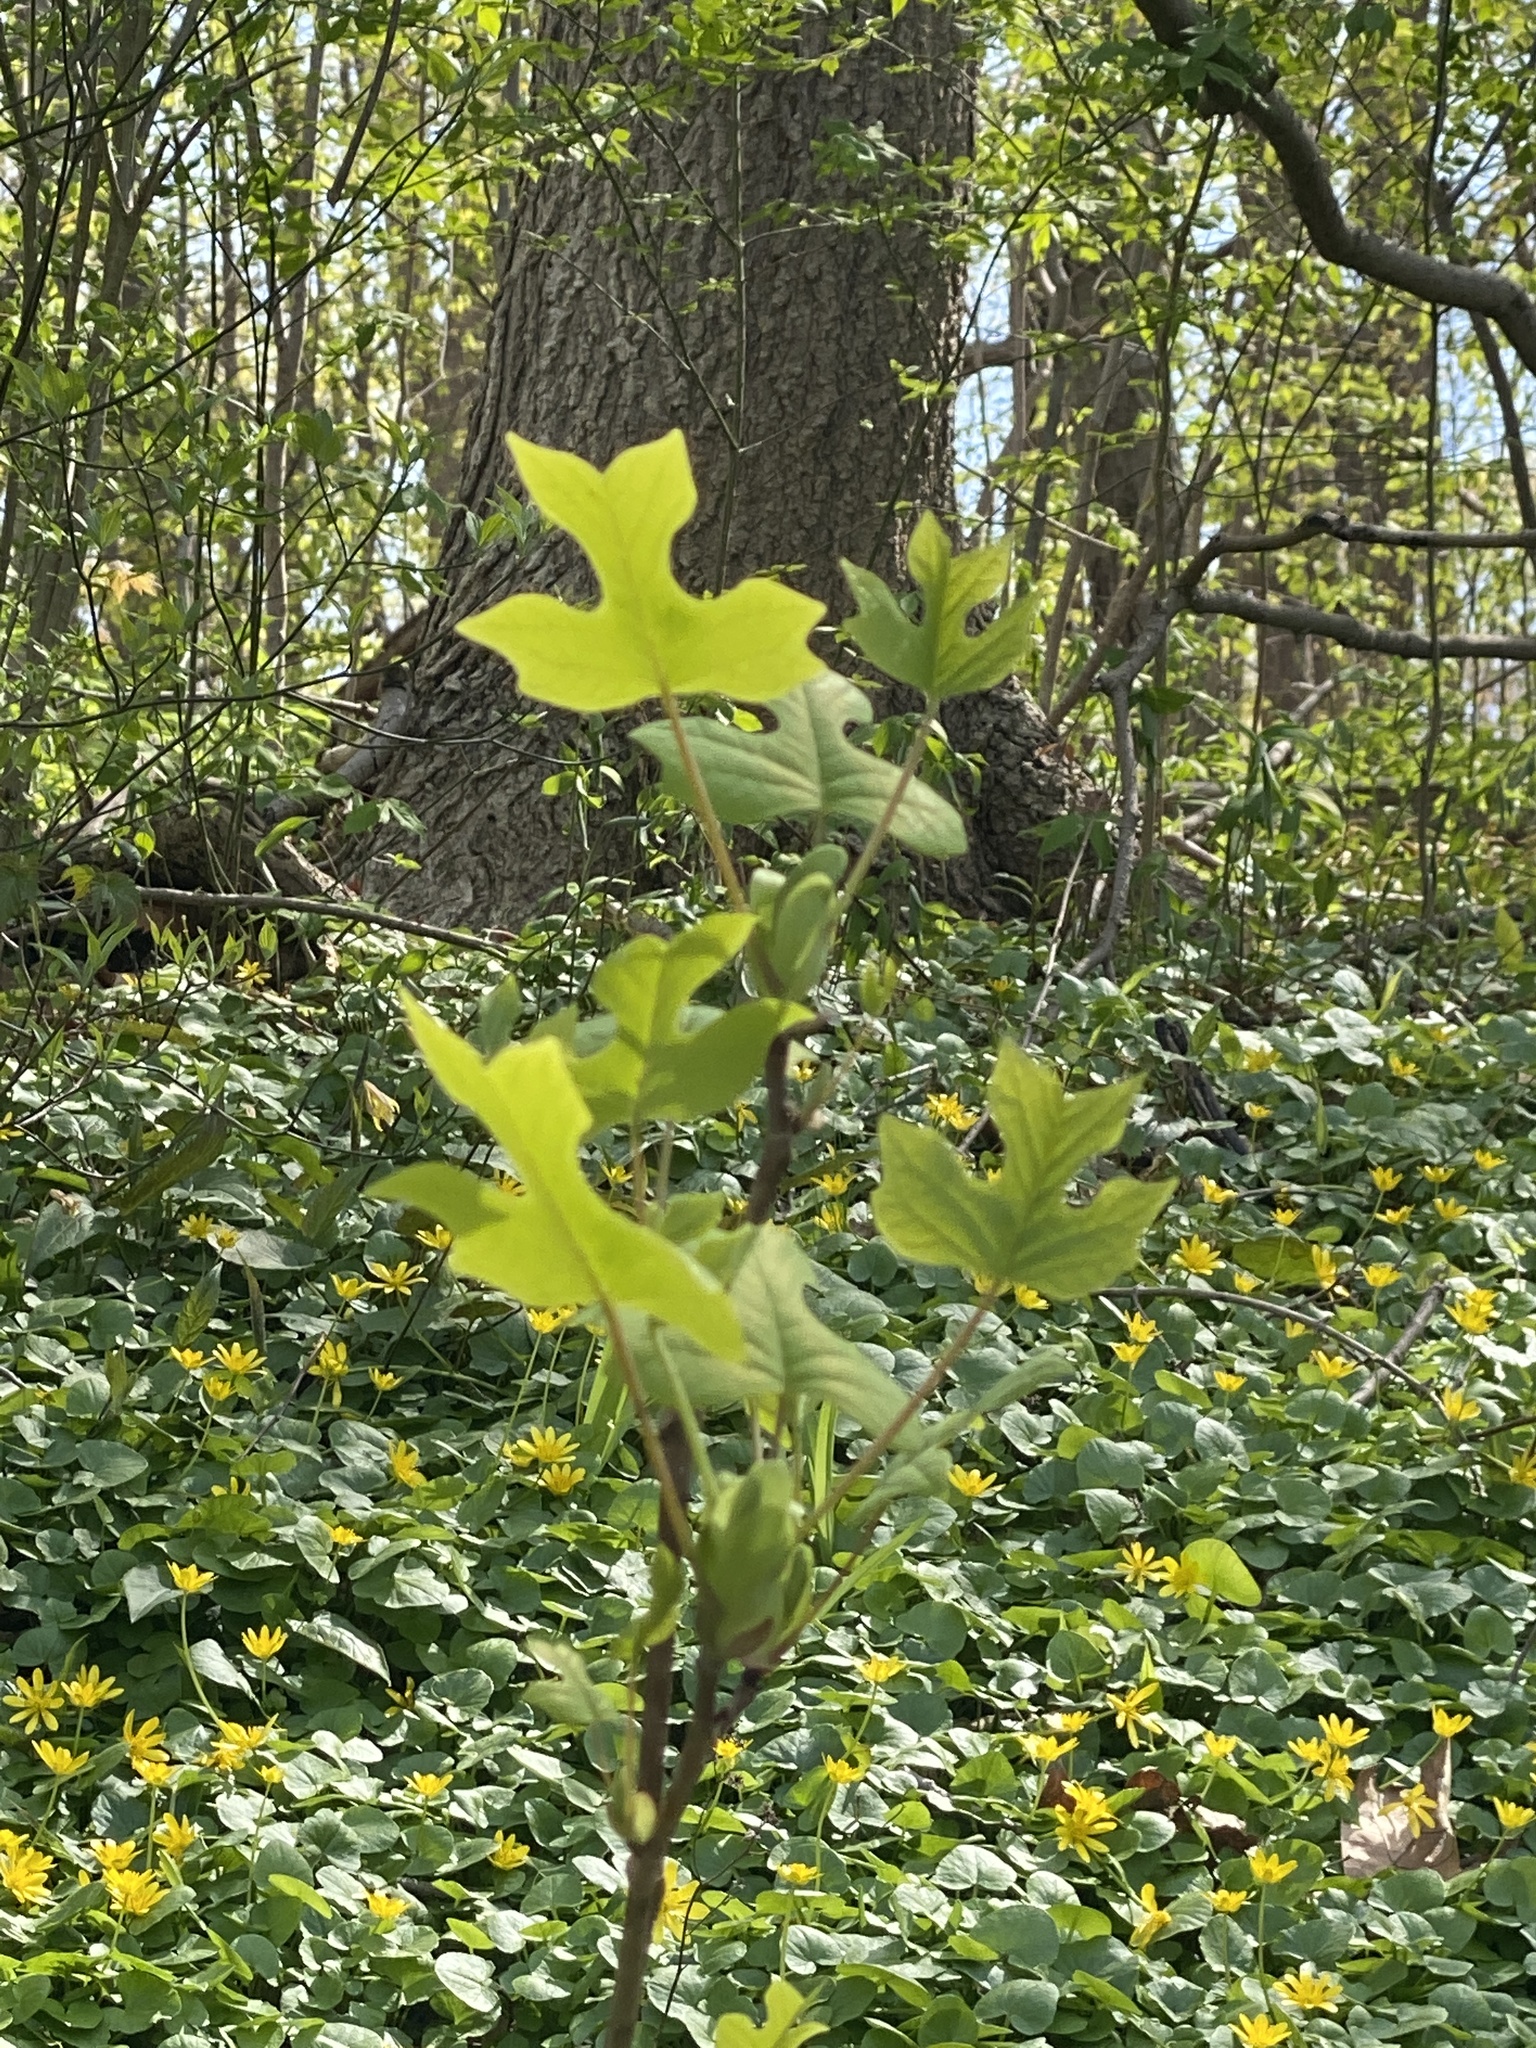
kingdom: Plantae
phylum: Tracheophyta
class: Magnoliopsida
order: Magnoliales
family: Magnoliaceae
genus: Liriodendron
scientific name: Liriodendron tulipifera
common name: Tulip tree
